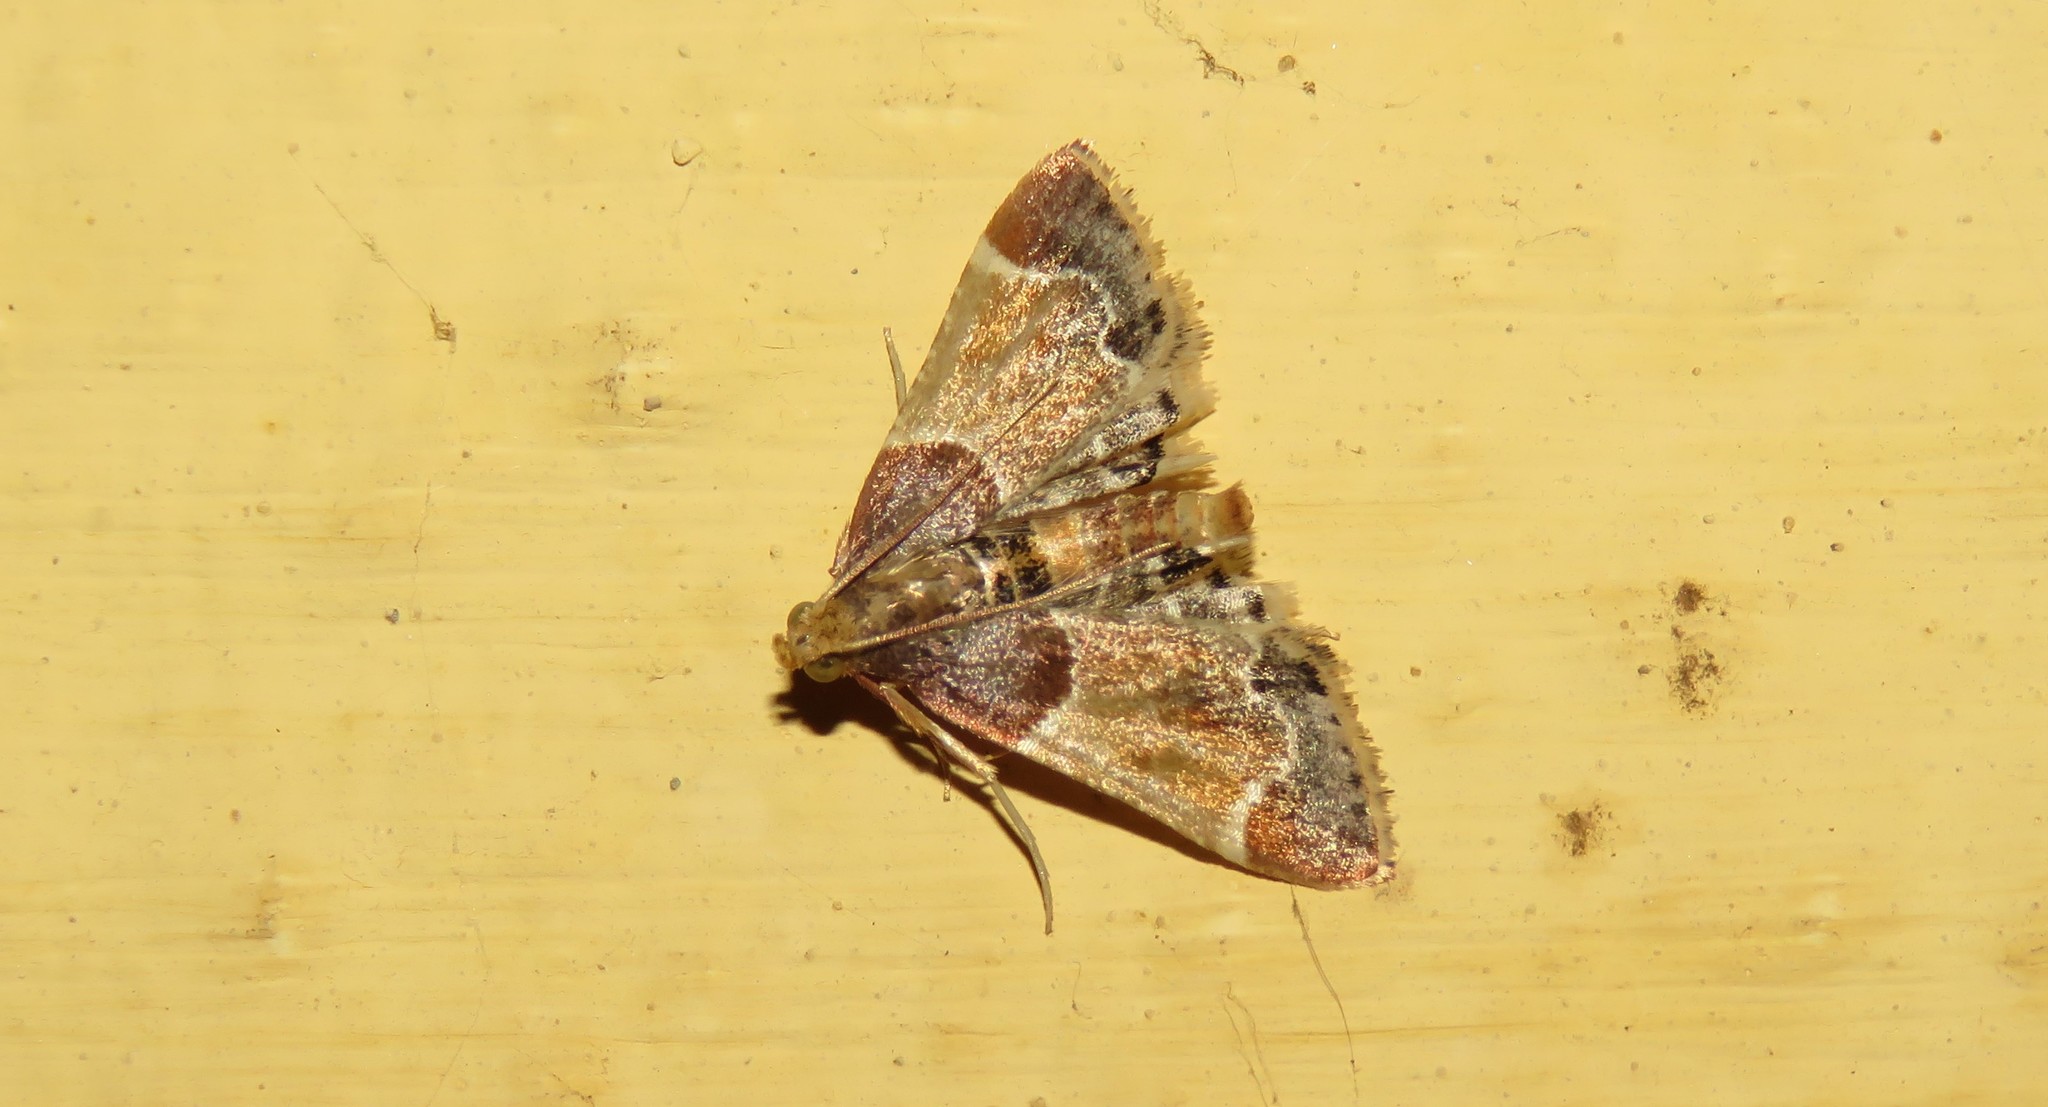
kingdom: Animalia
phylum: Arthropoda
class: Insecta
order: Lepidoptera
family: Pyralidae
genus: Pyralis
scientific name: Pyralis farinalis
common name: Meal moth
